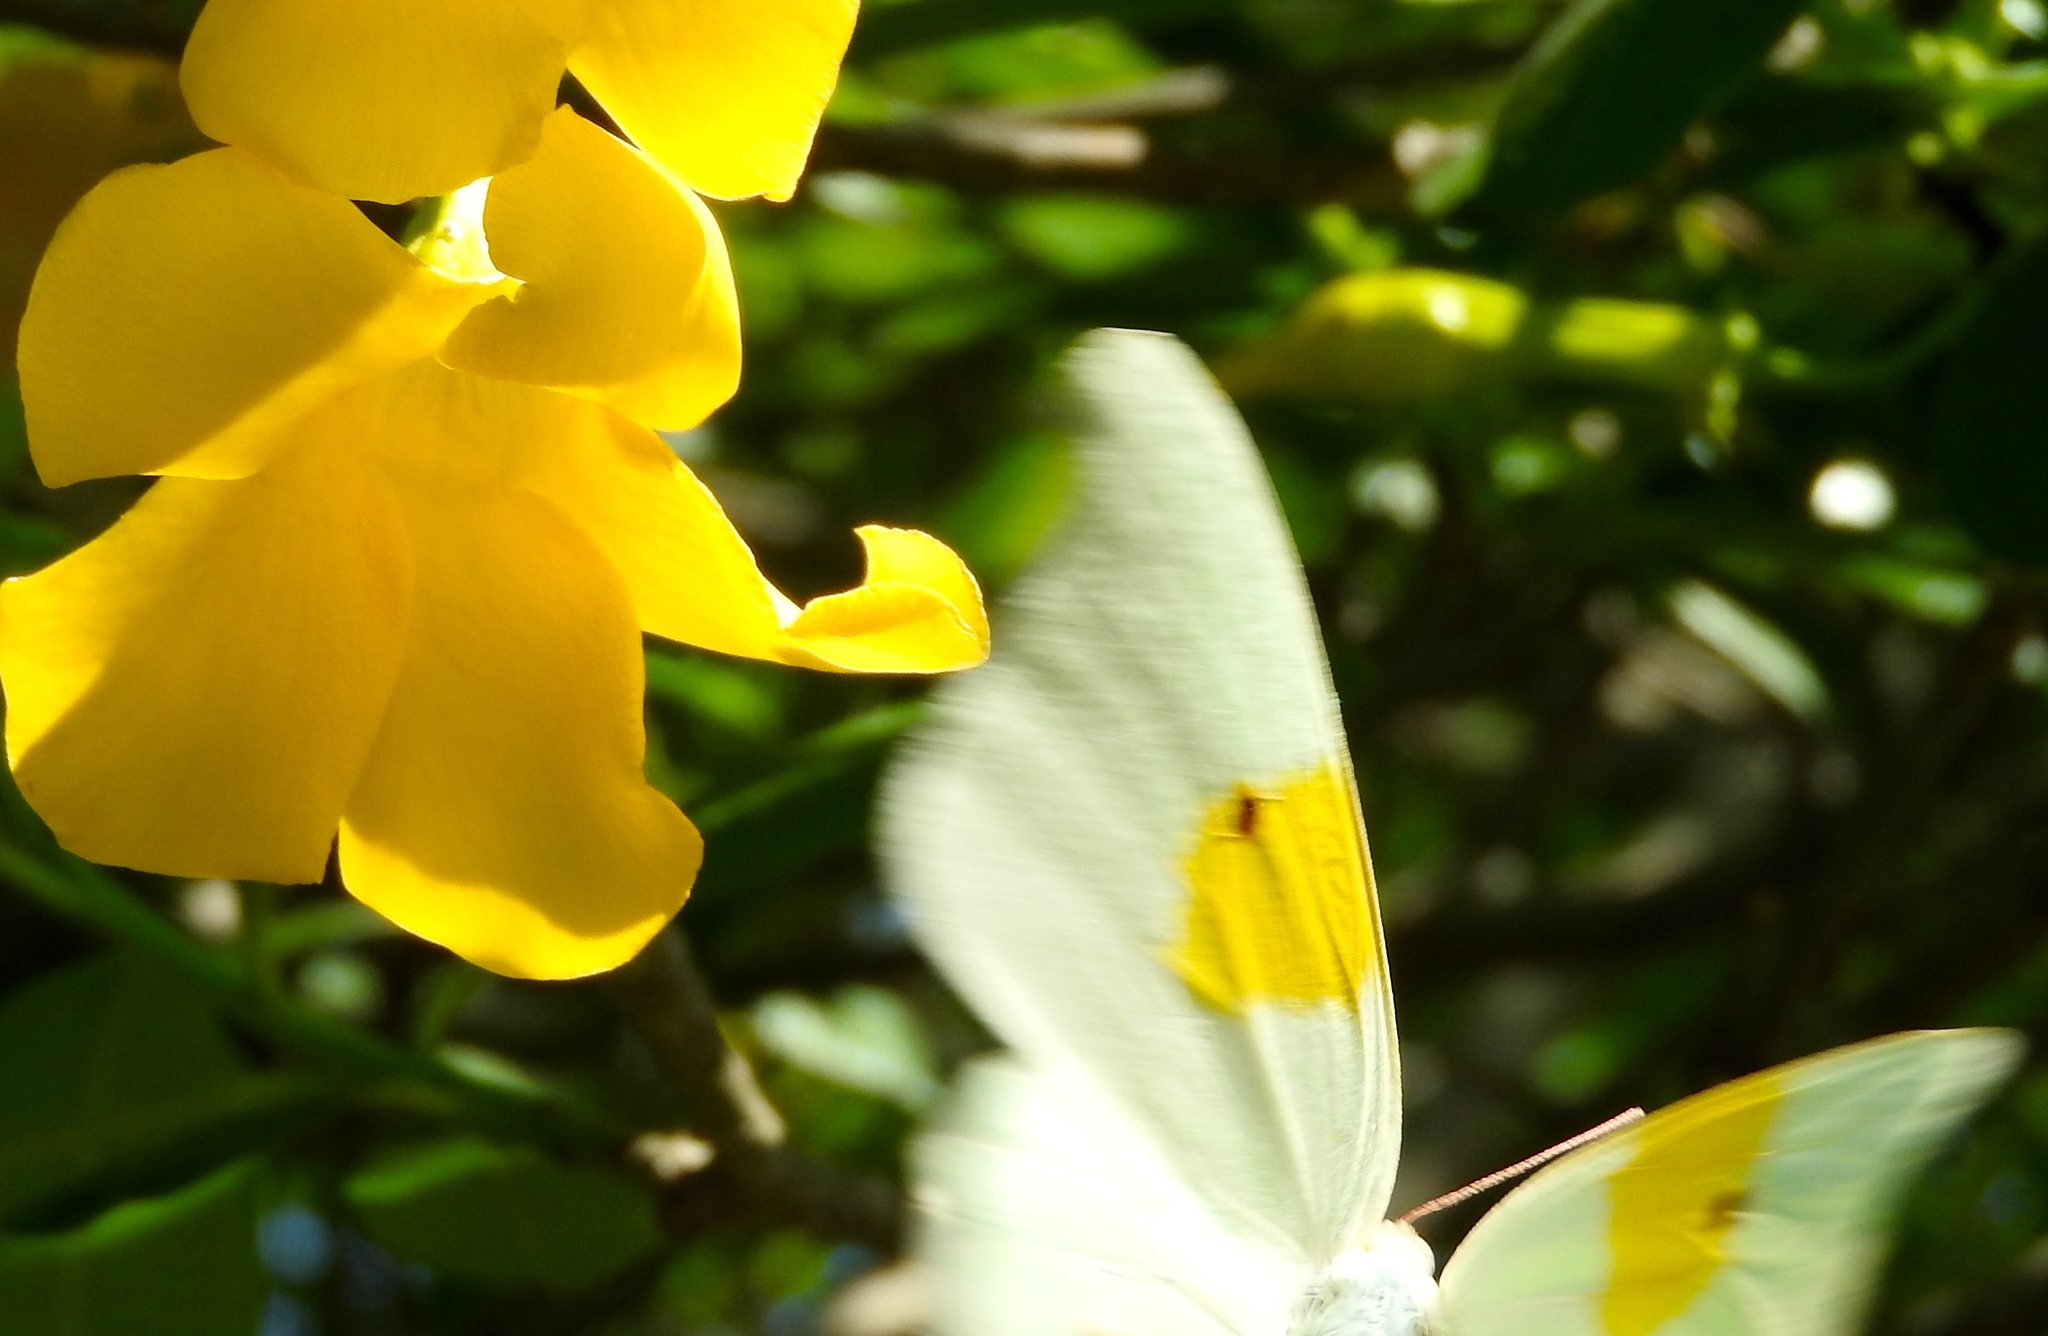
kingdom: Animalia
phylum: Arthropoda
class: Insecta
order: Lepidoptera
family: Pieridae
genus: Anteos
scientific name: Anteos clorinde
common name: White angled sulphur
